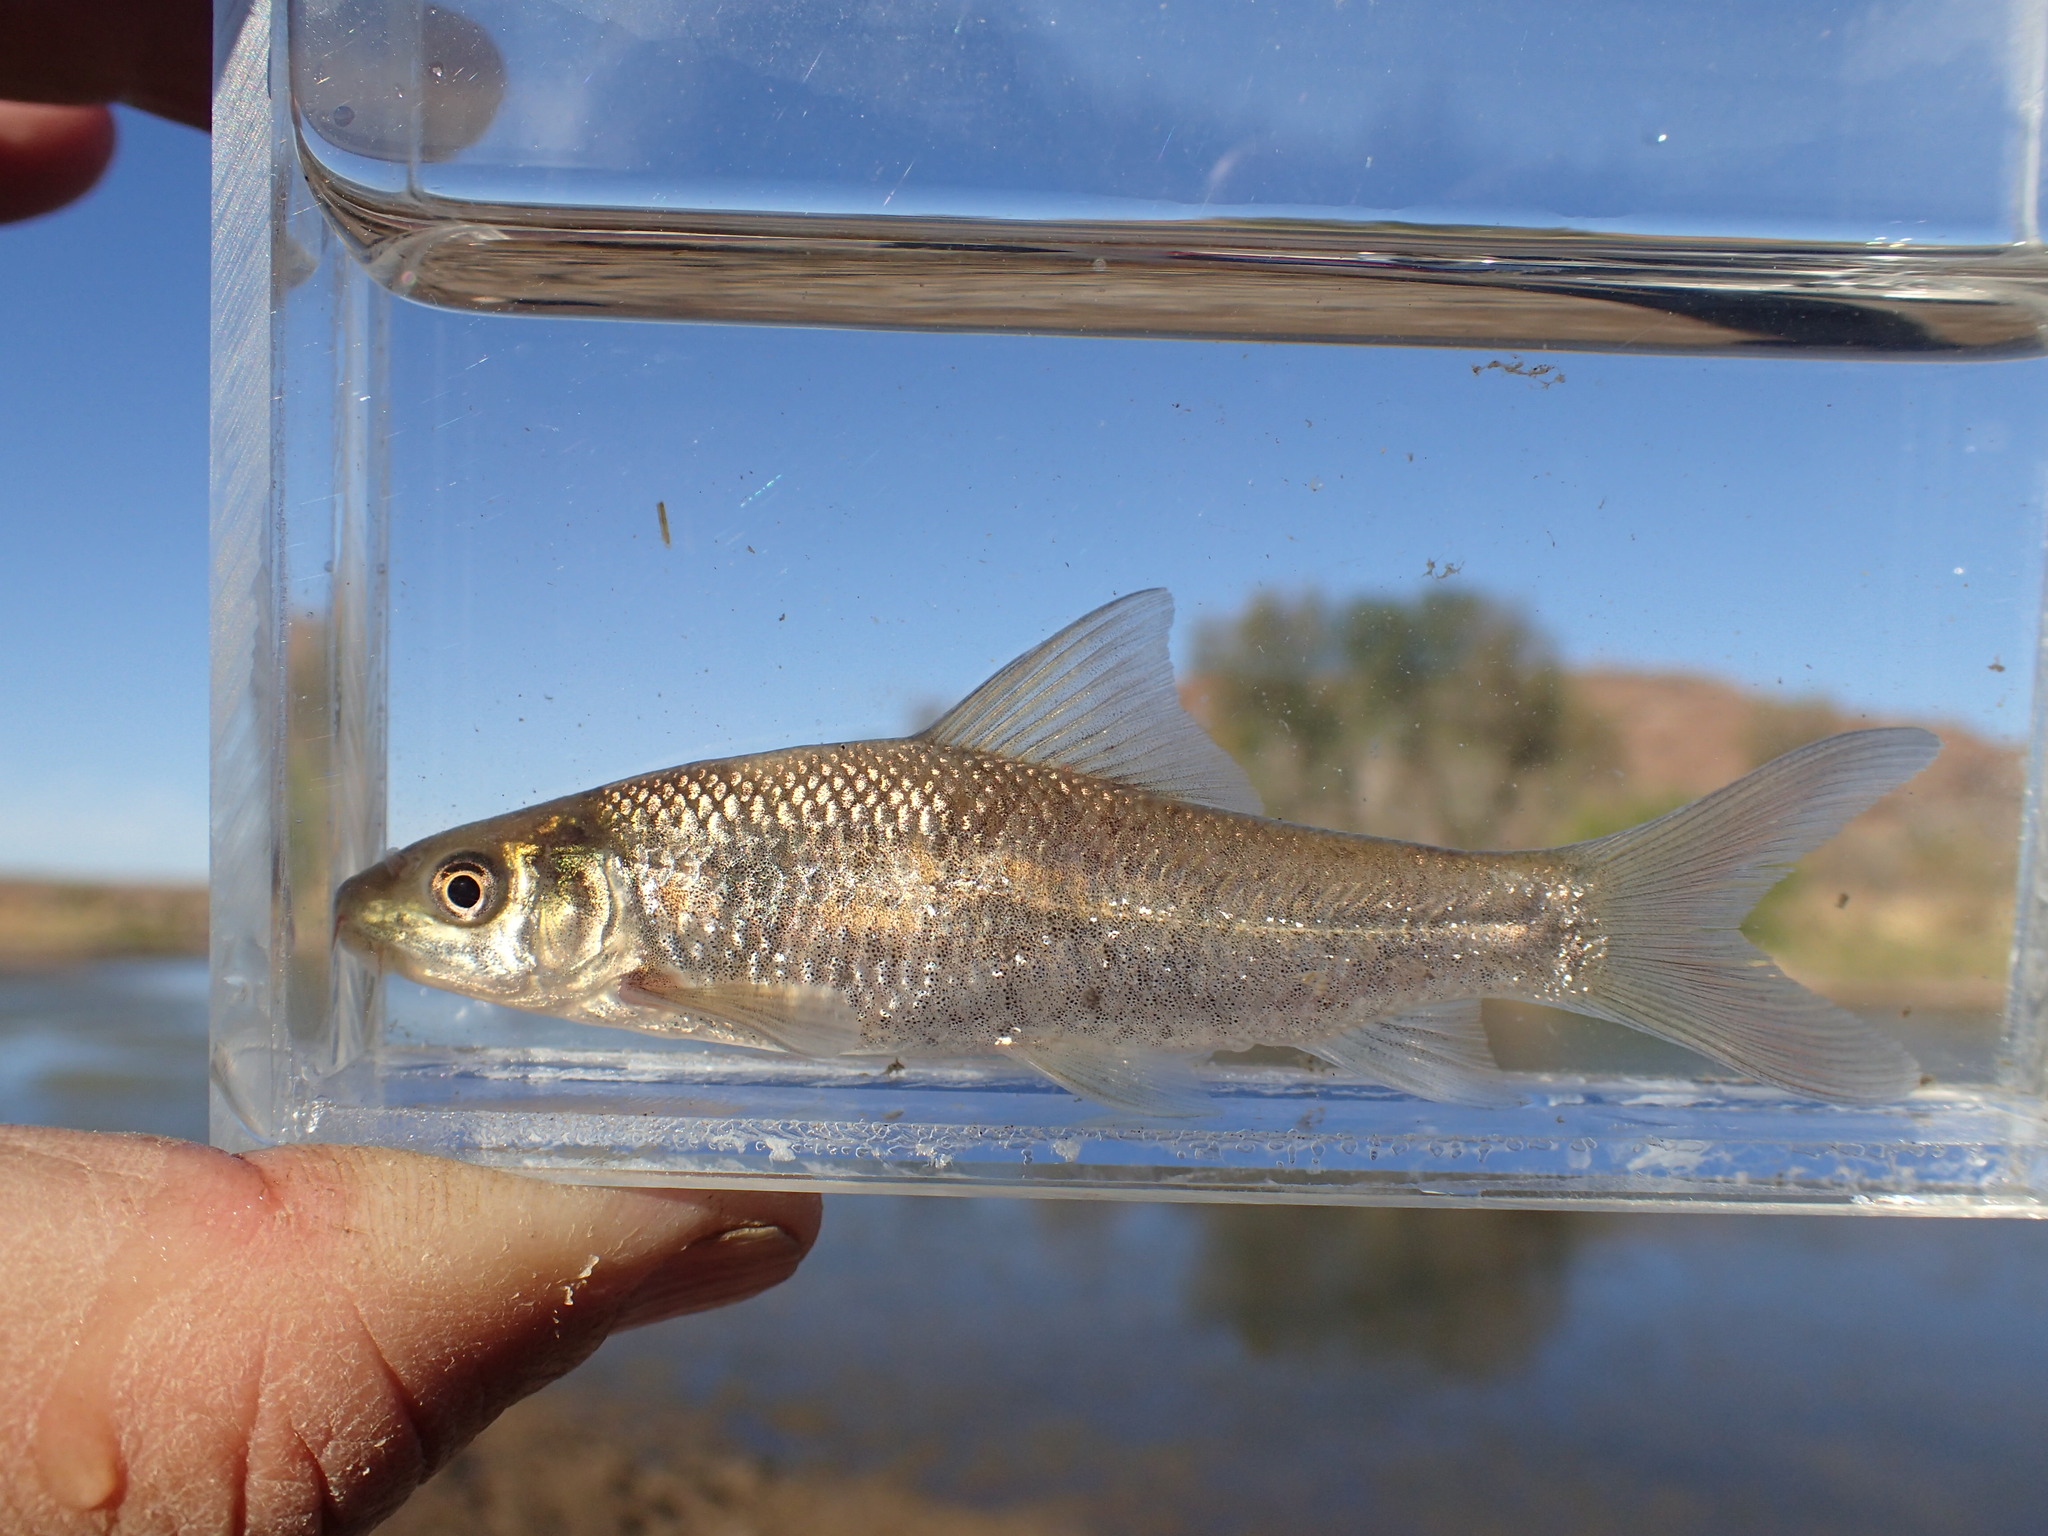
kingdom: Animalia
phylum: Chordata
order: Cypriniformes
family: Cyprinidae
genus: Labeo
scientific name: Labeo capensis
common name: Orange river mudfish
